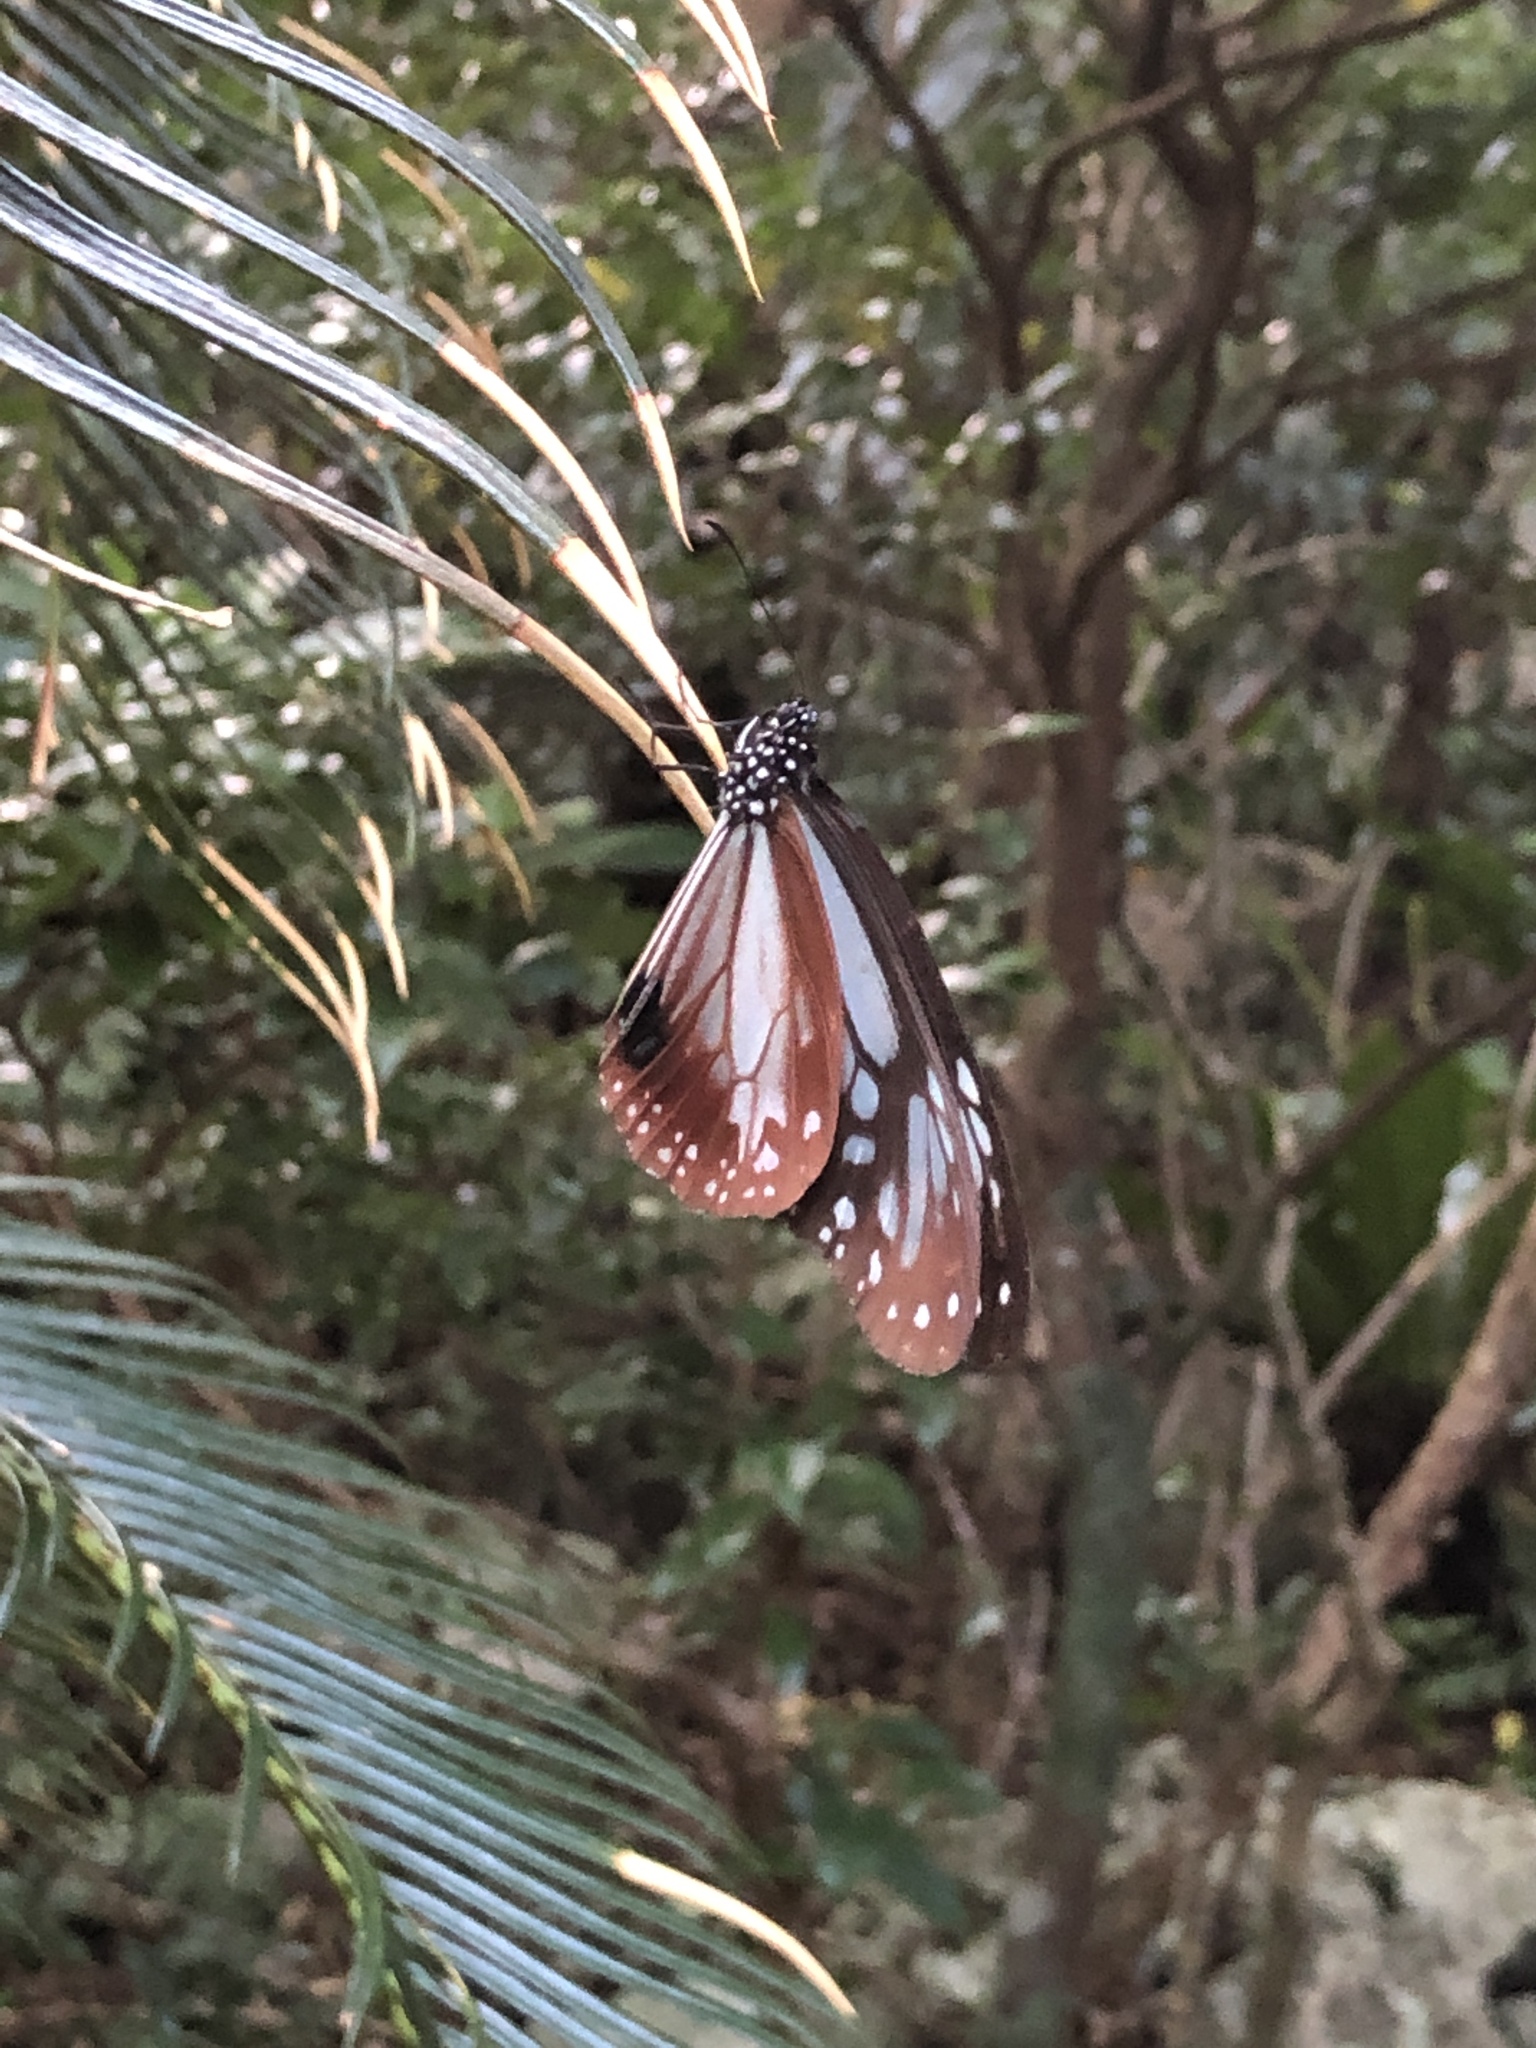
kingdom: Animalia
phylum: Arthropoda
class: Insecta
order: Lepidoptera
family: Nymphalidae
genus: Parantica
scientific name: Parantica sita
